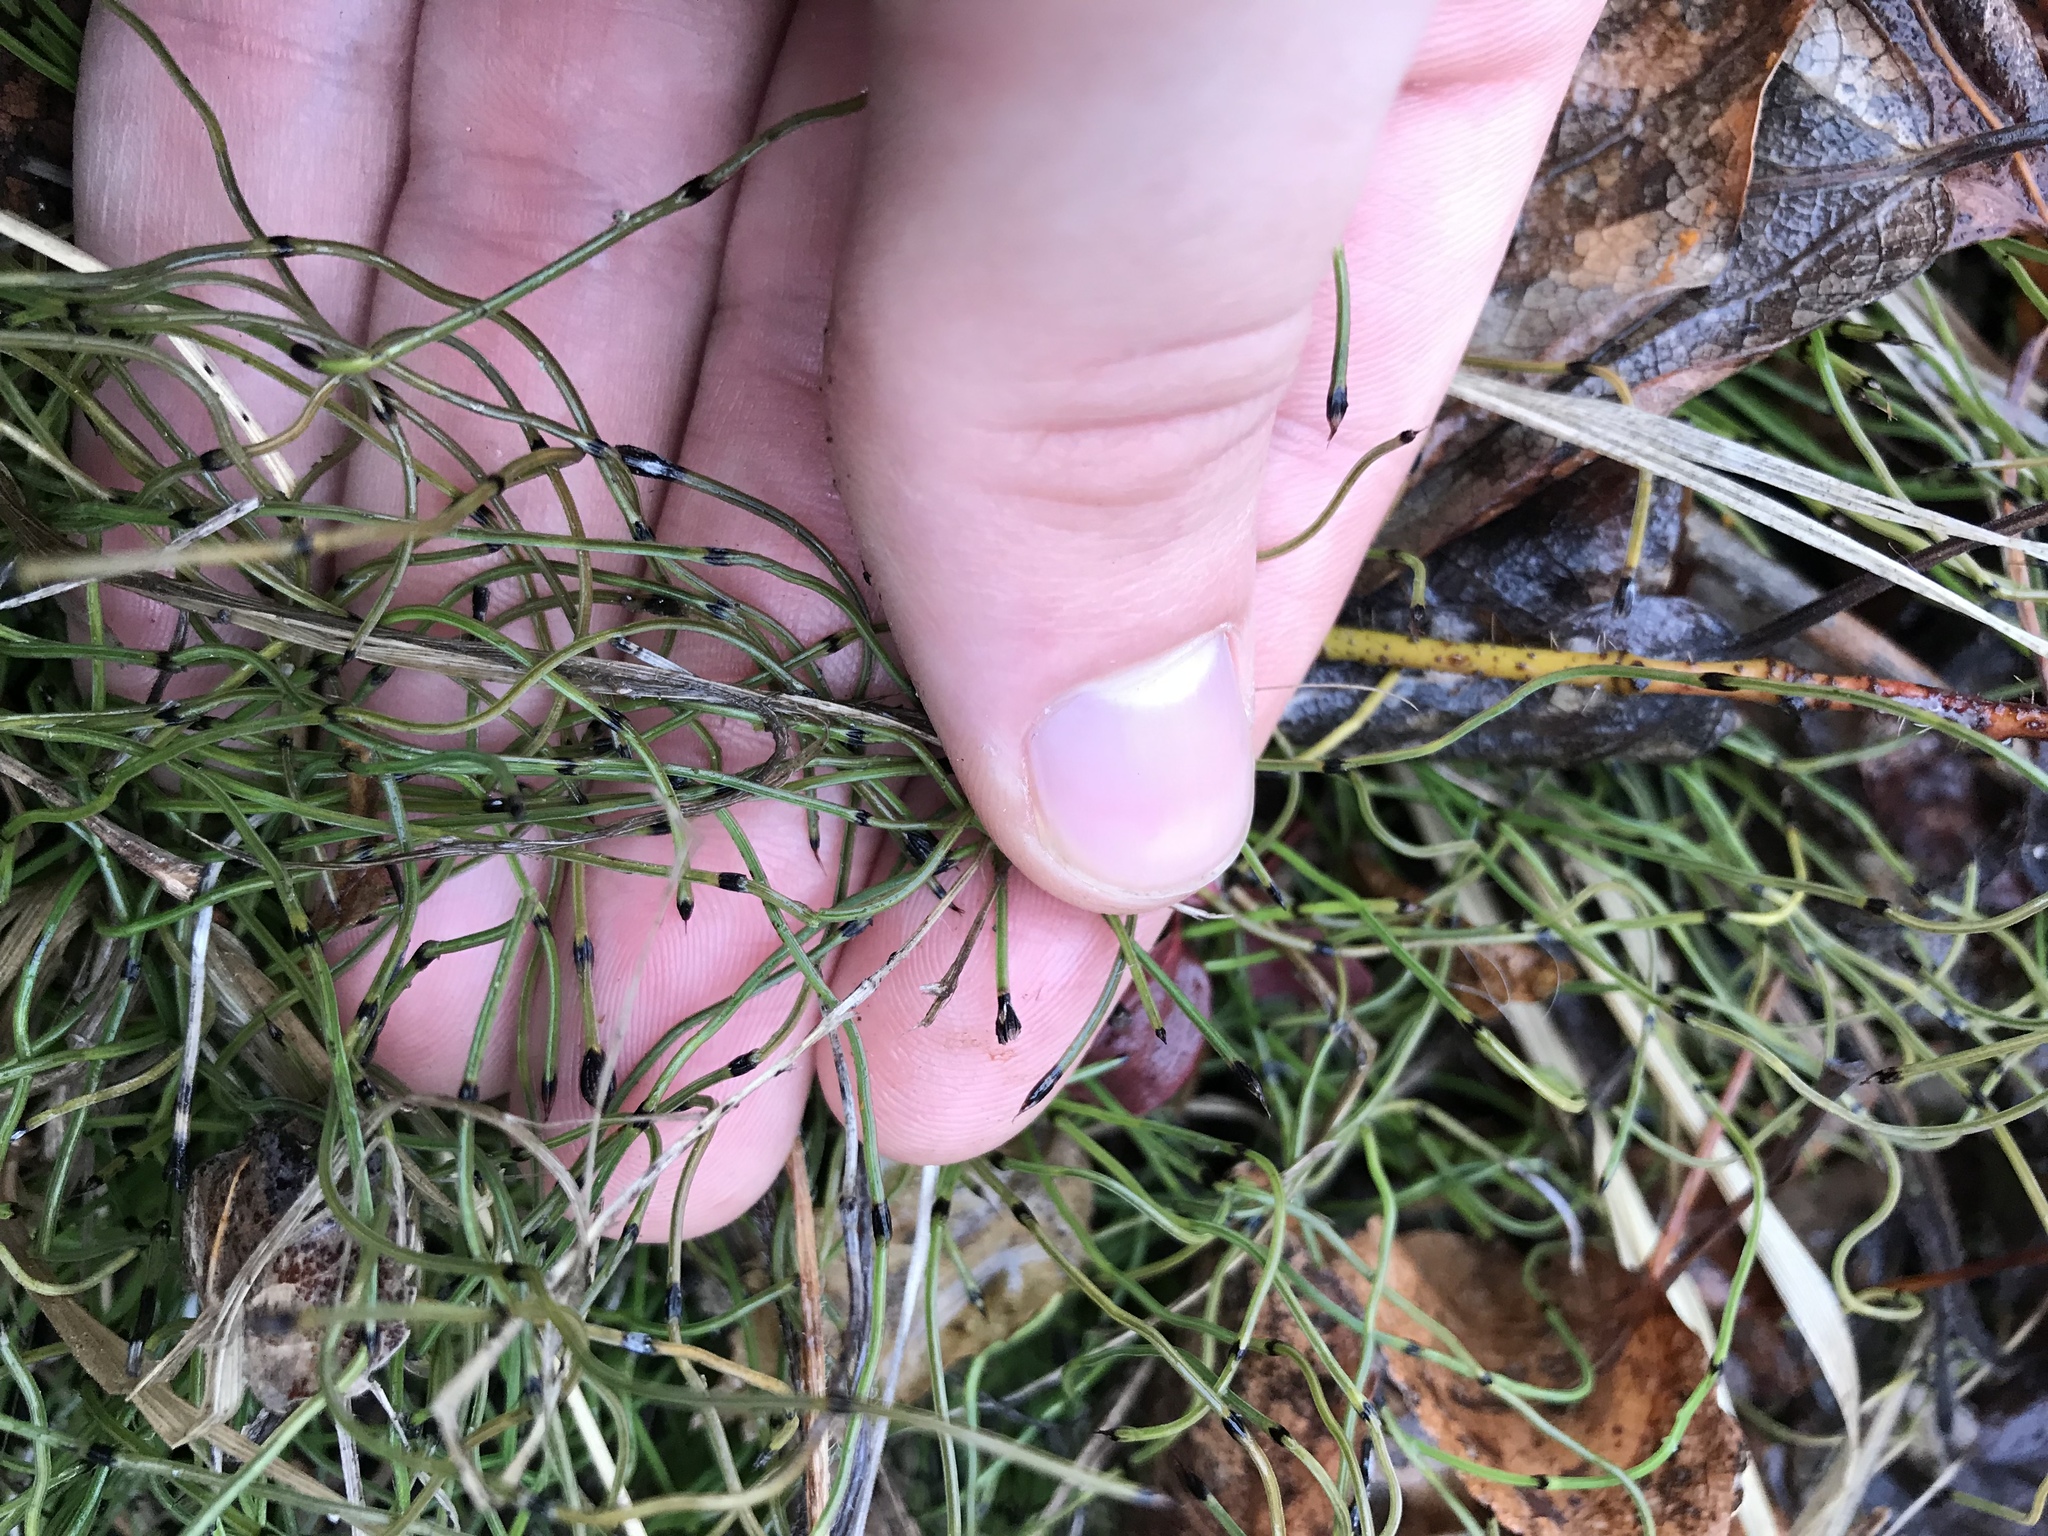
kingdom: Plantae
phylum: Tracheophyta
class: Polypodiopsida
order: Equisetales
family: Equisetaceae
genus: Equisetum
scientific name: Equisetum scirpoides
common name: Delicate horsetail
